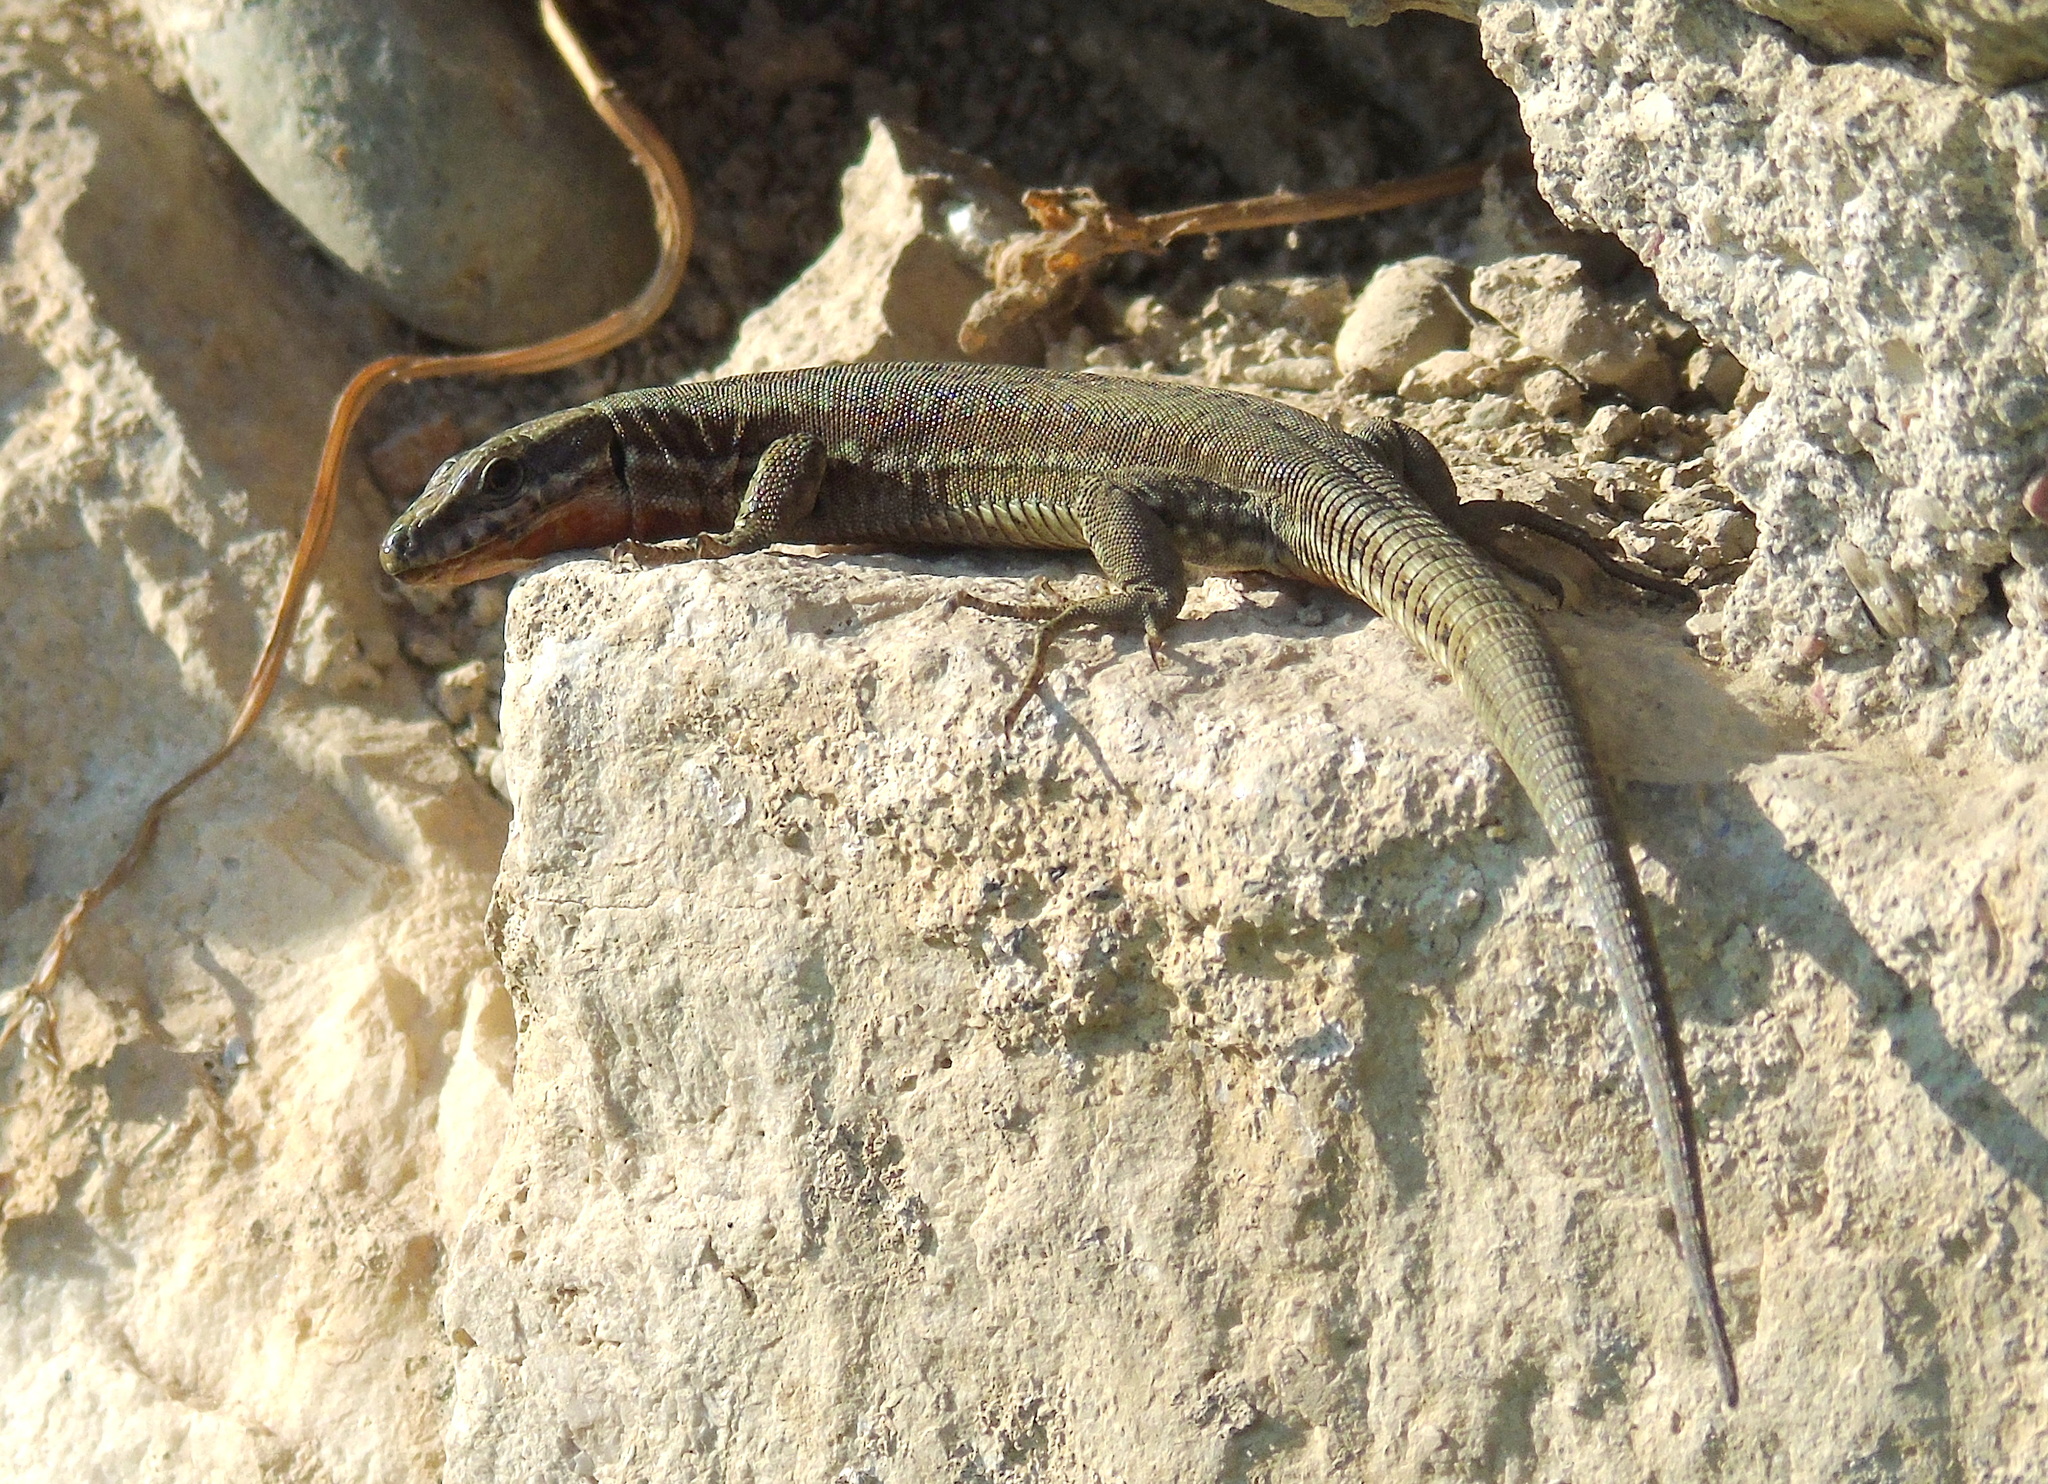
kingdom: Animalia
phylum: Chordata
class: Squamata
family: Lacertidae
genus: Podarcis
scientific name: Podarcis muralis
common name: Common wall lizard
